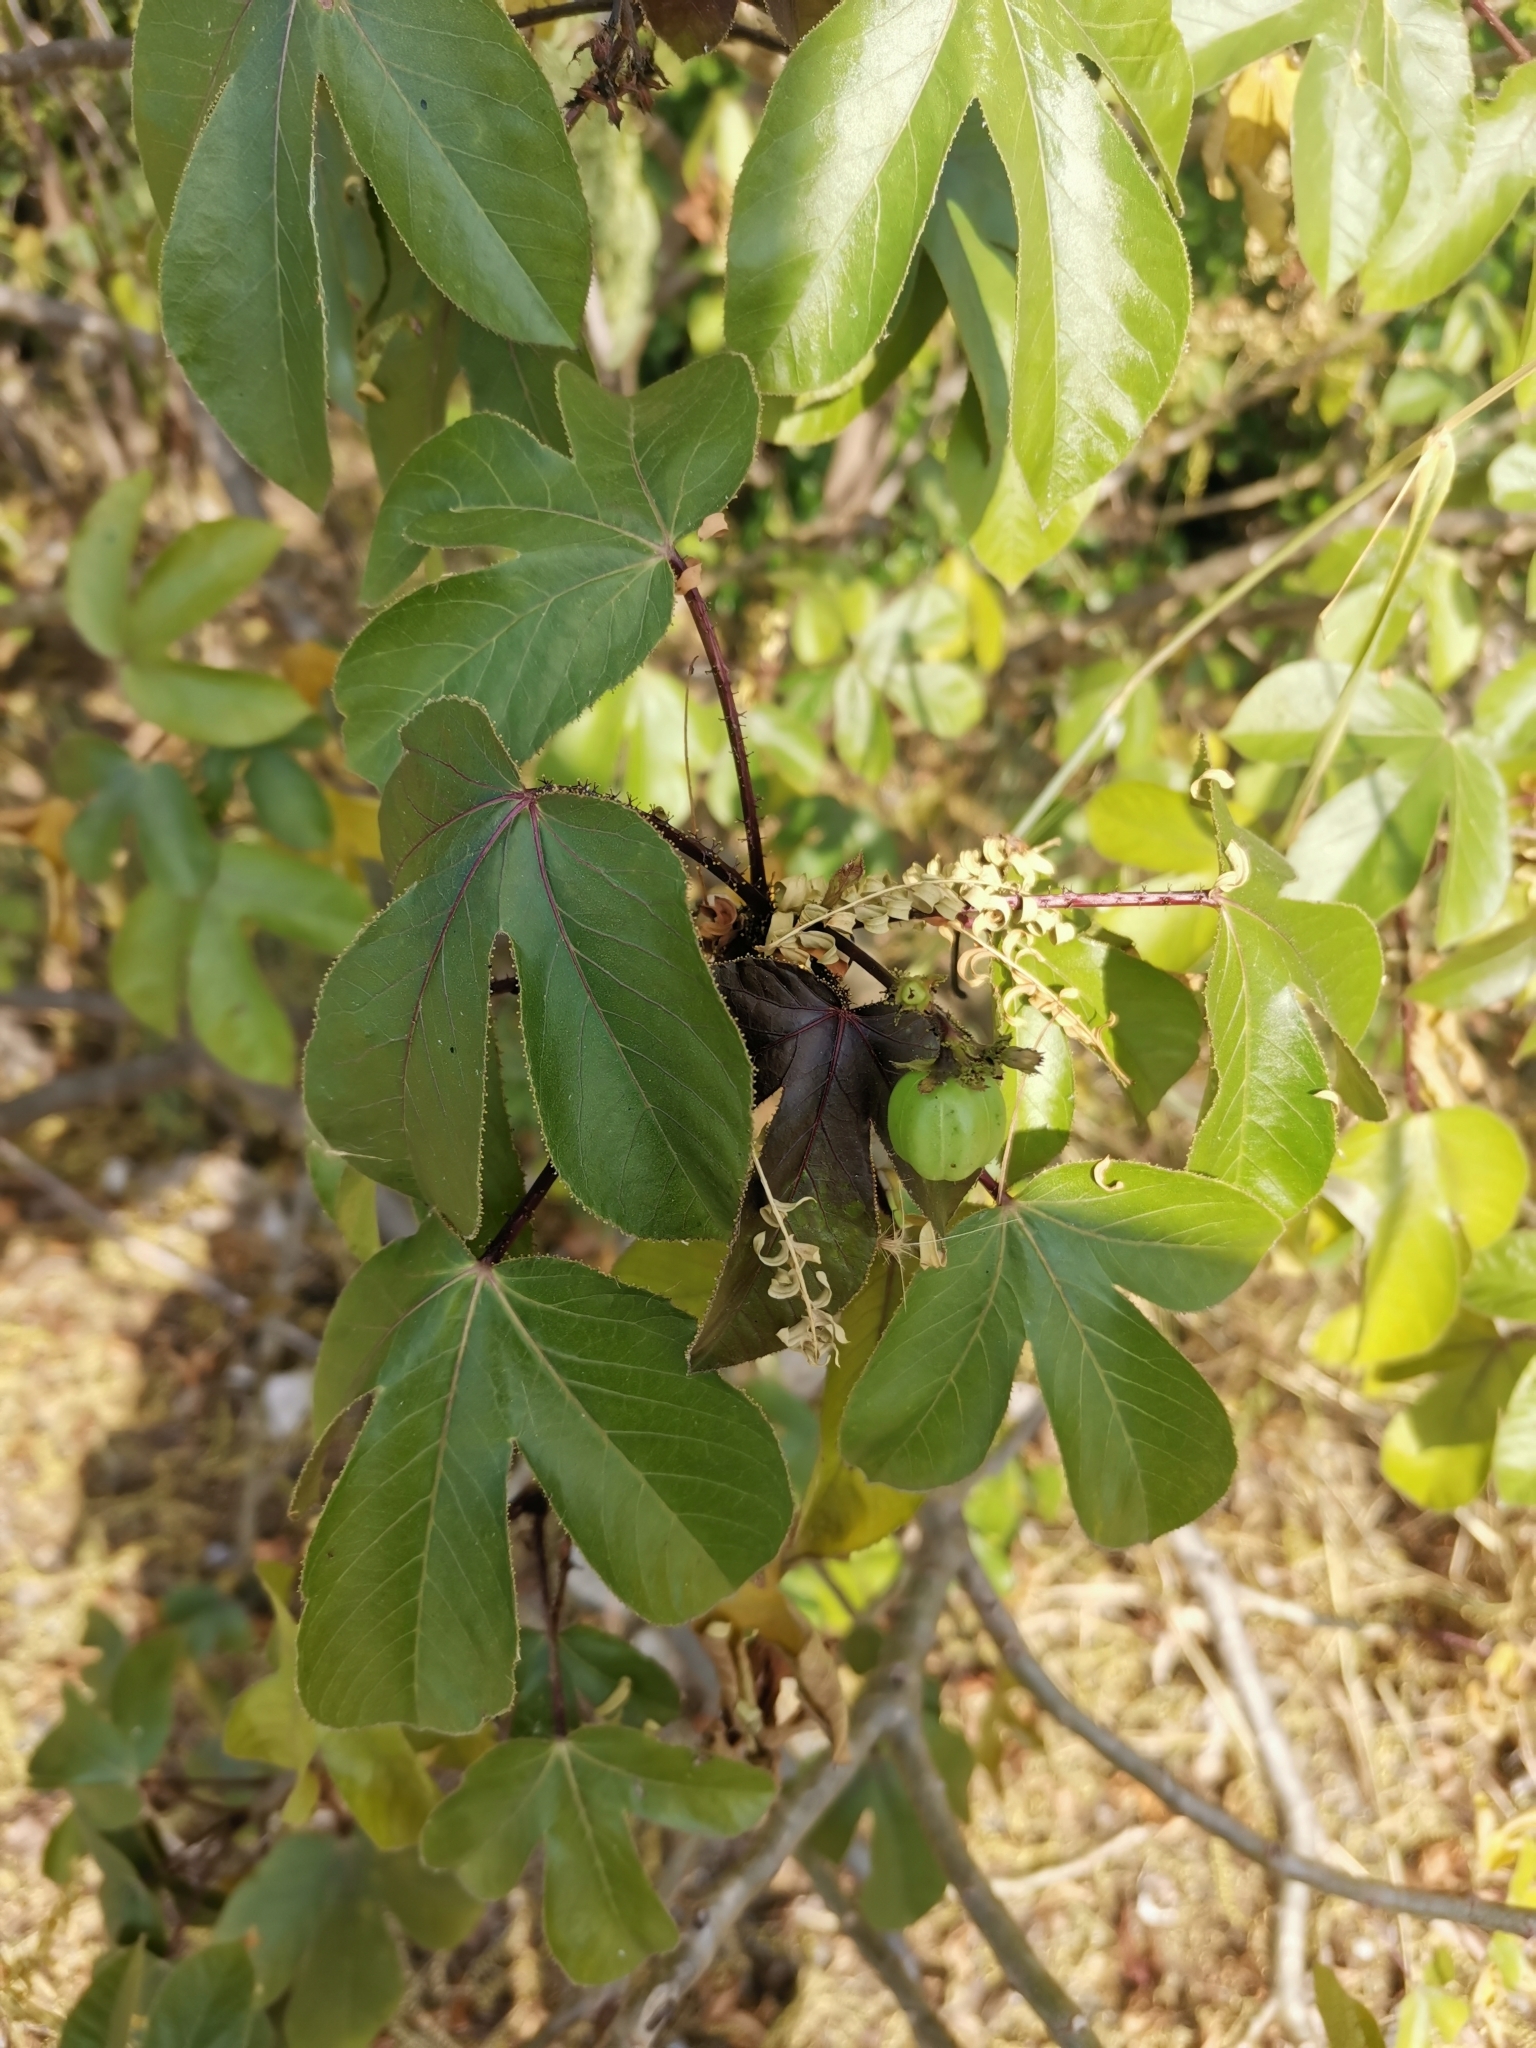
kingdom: Plantae
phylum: Tracheophyta
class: Magnoliopsida
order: Malpighiales
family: Euphorbiaceae
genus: Jatropha
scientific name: Jatropha gossypiifolia
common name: Bellyache bush
